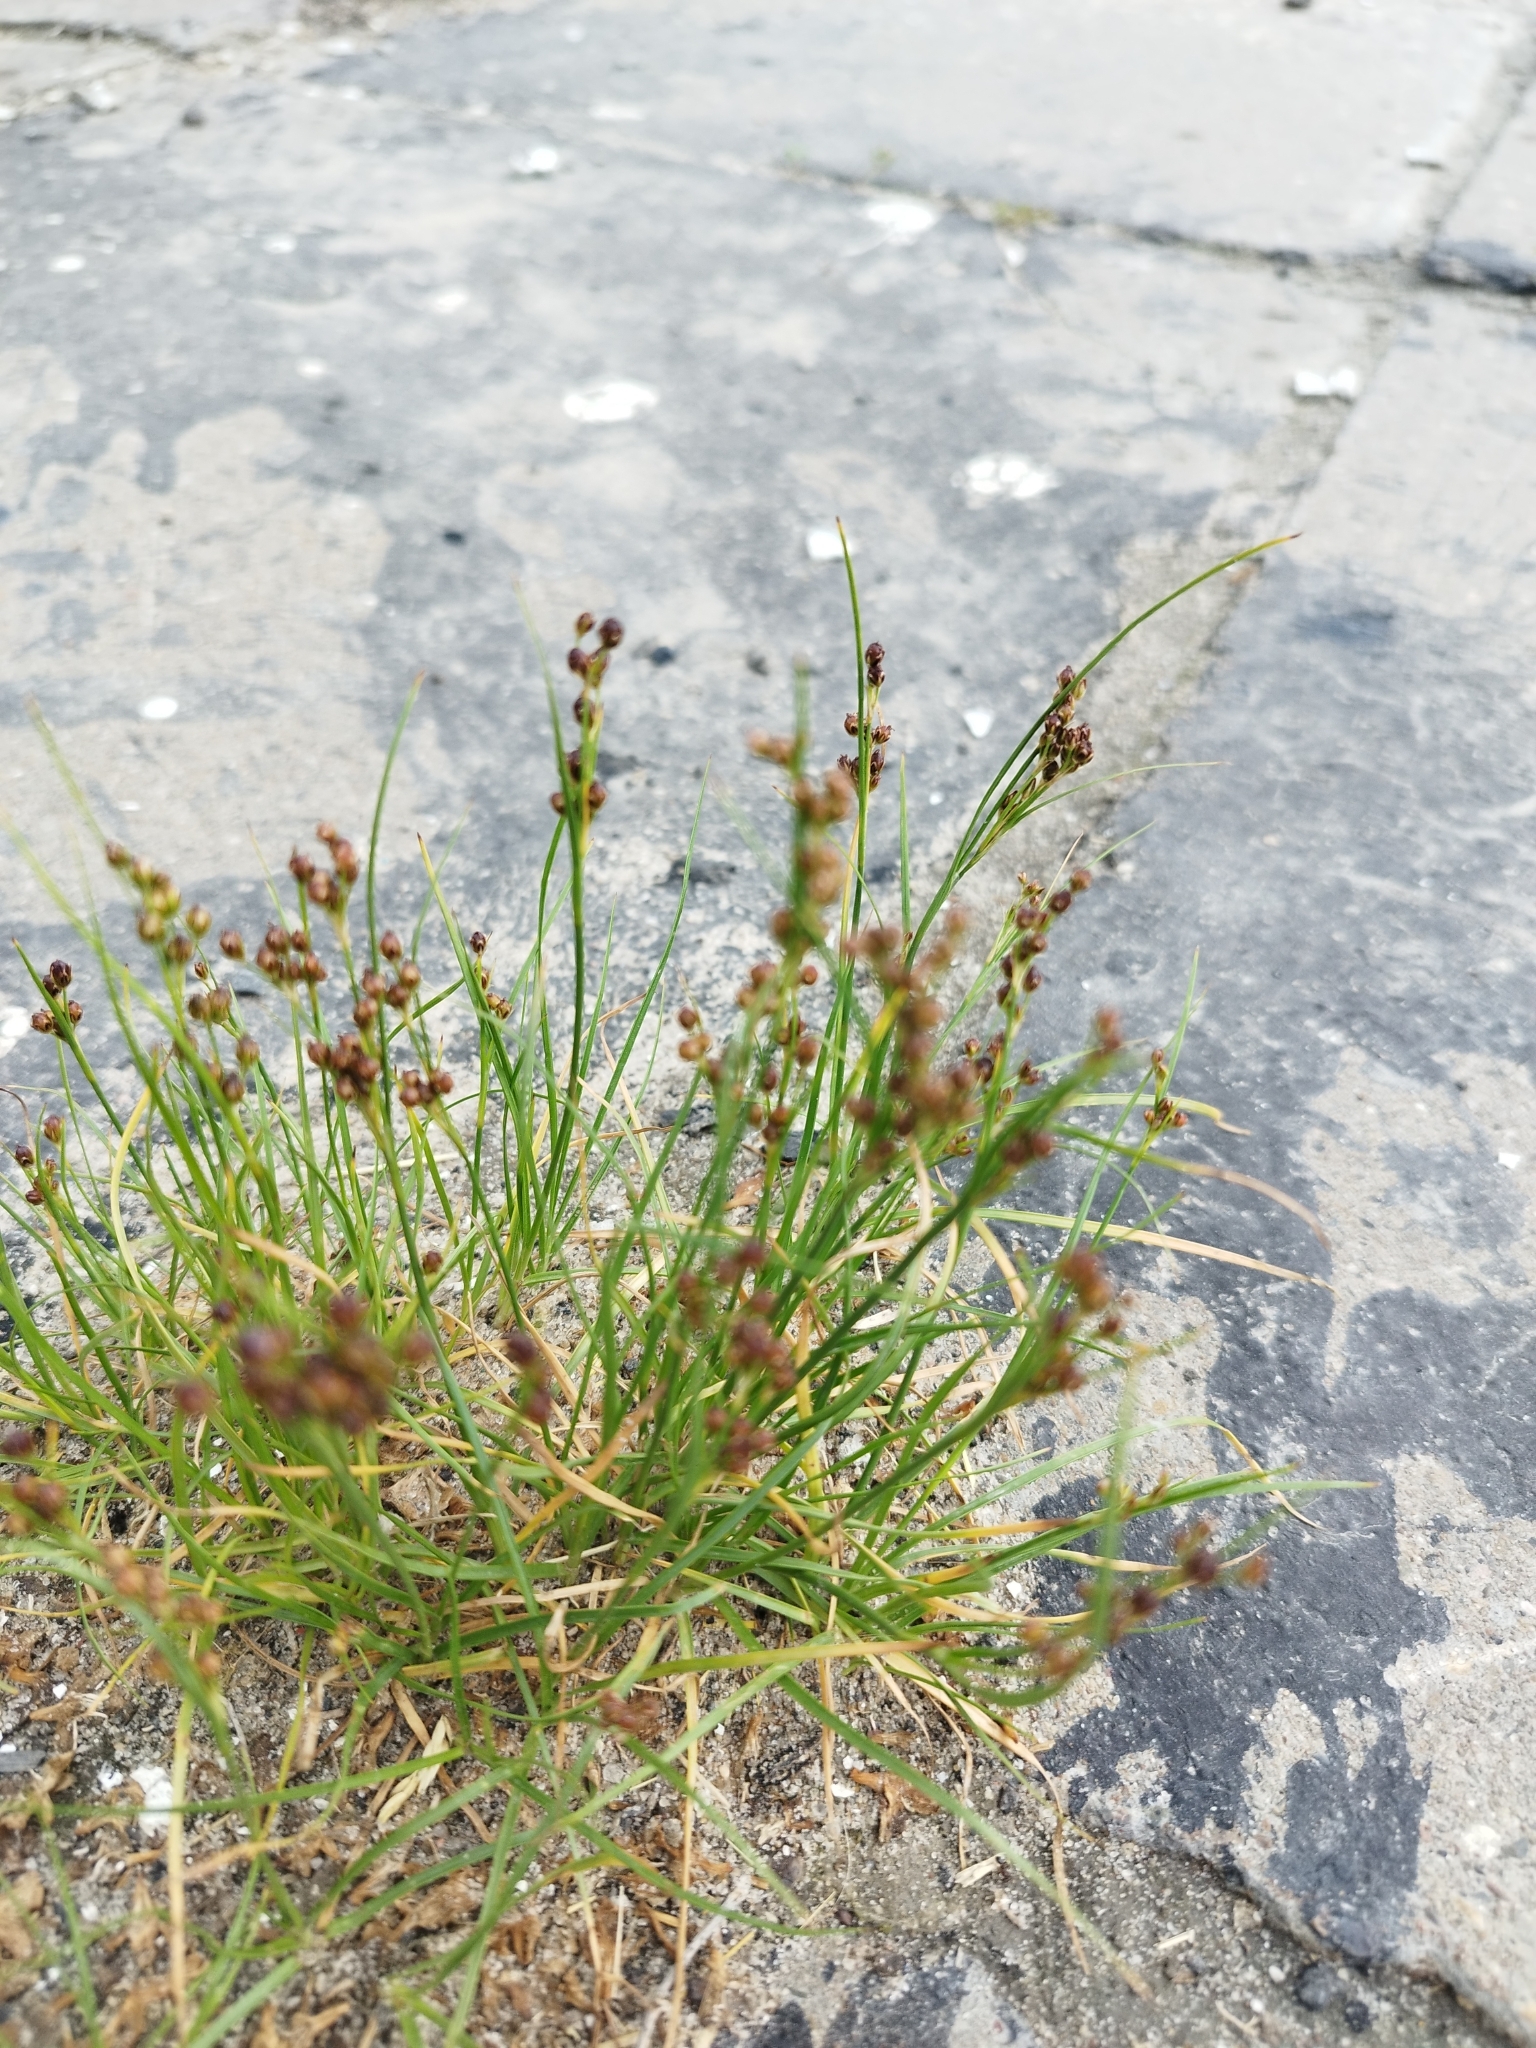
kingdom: Plantae
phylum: Tracheophyta
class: Liliopsida
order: Poales
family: Juncaceae
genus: Juncus
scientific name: Juncus compressus
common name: Round-fruited rush
